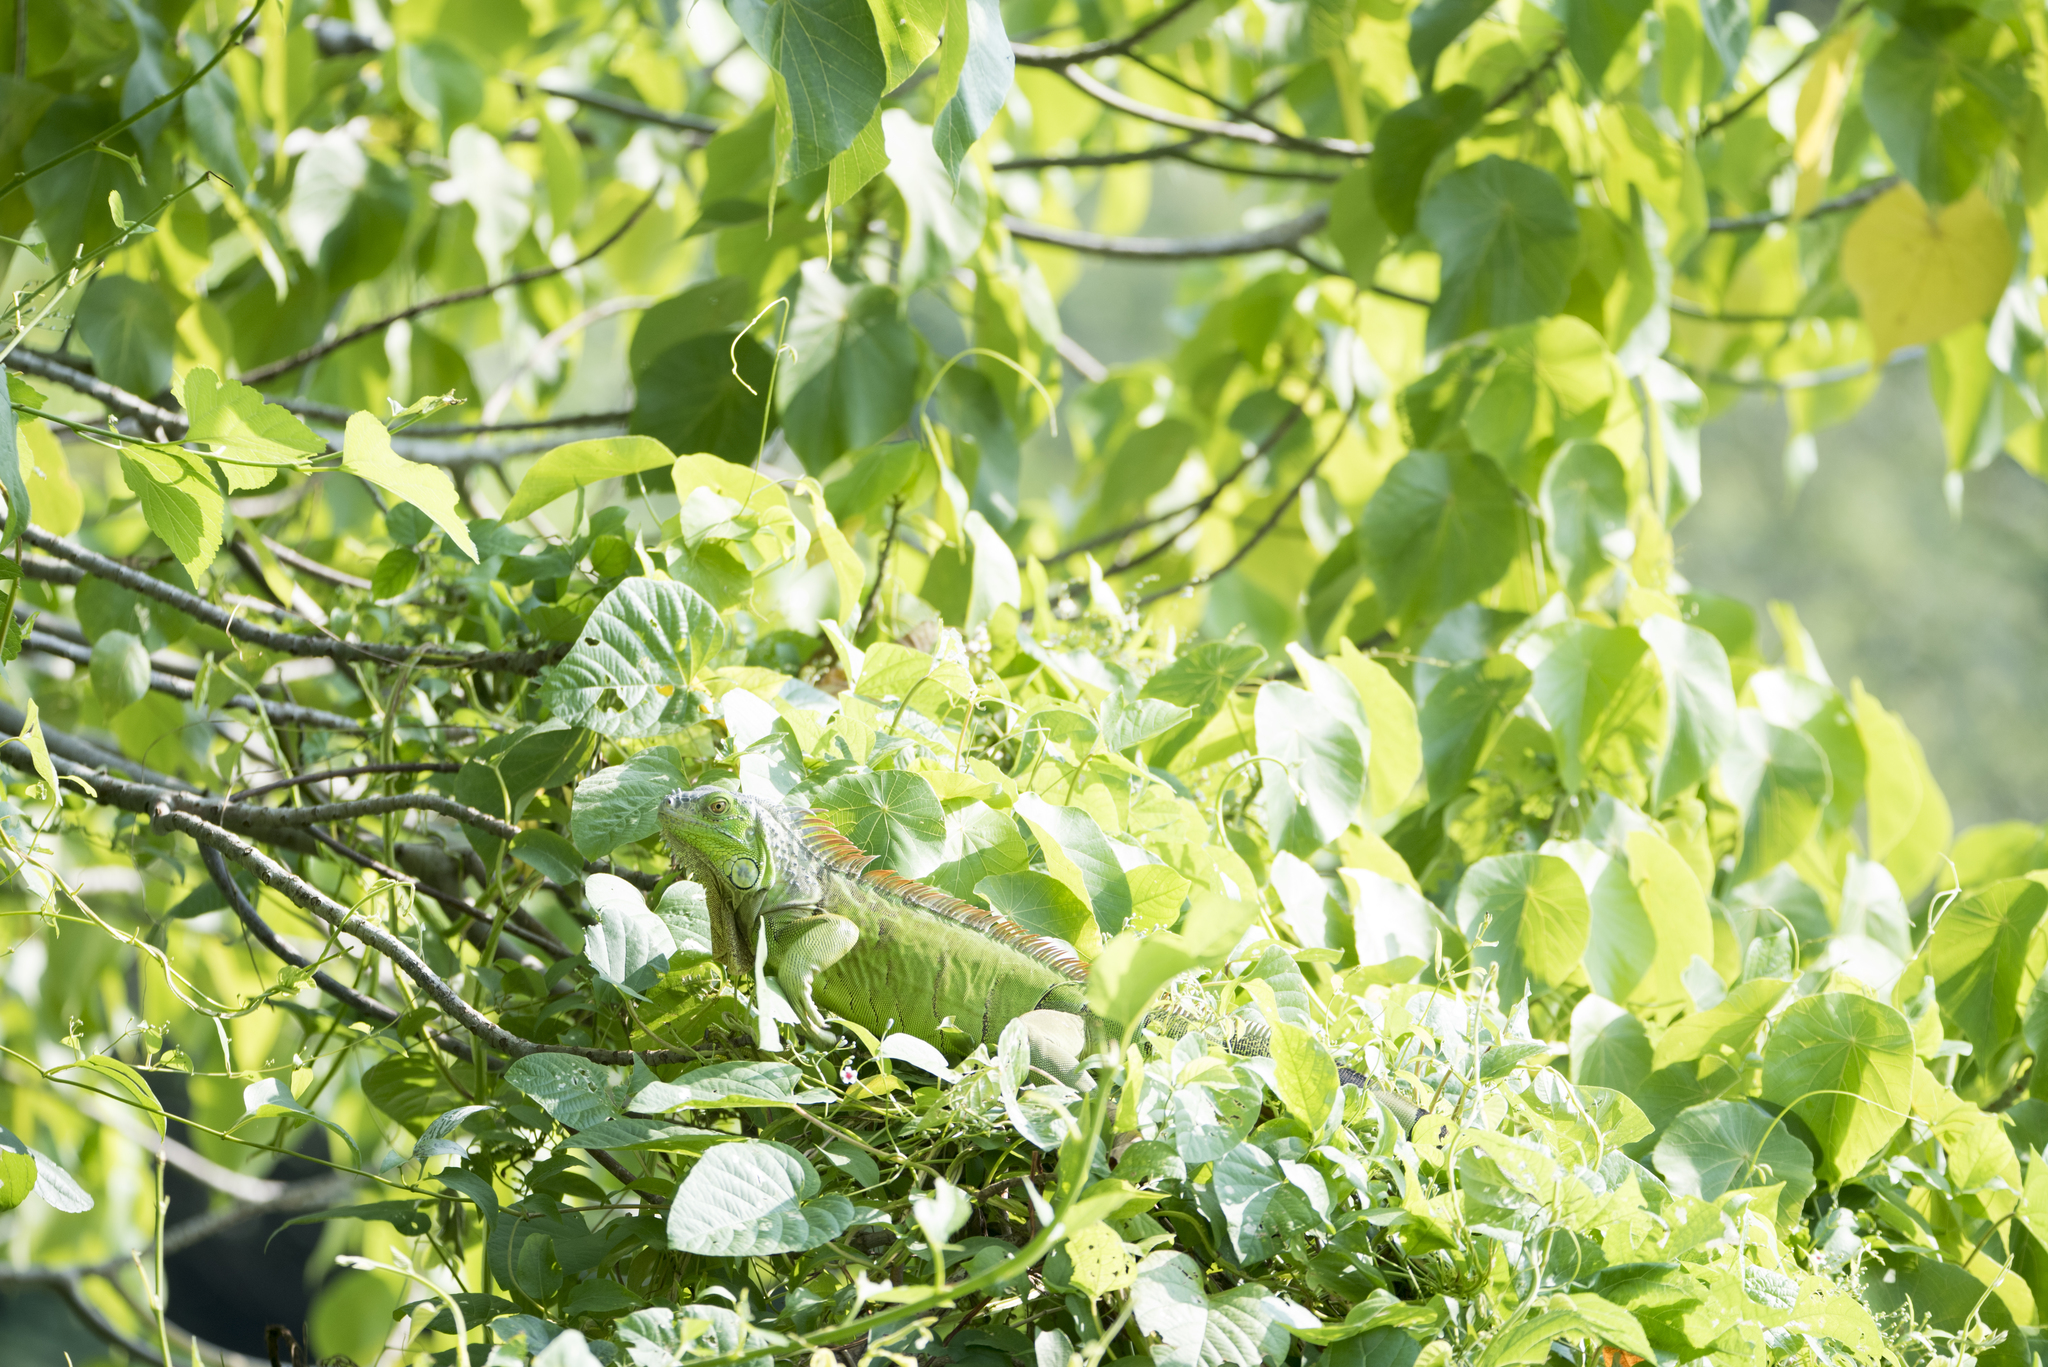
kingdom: Animalia
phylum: Chordata
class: Squamata
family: Iguanidae
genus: Iguana
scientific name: Iguana iguana
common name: Green iguana
